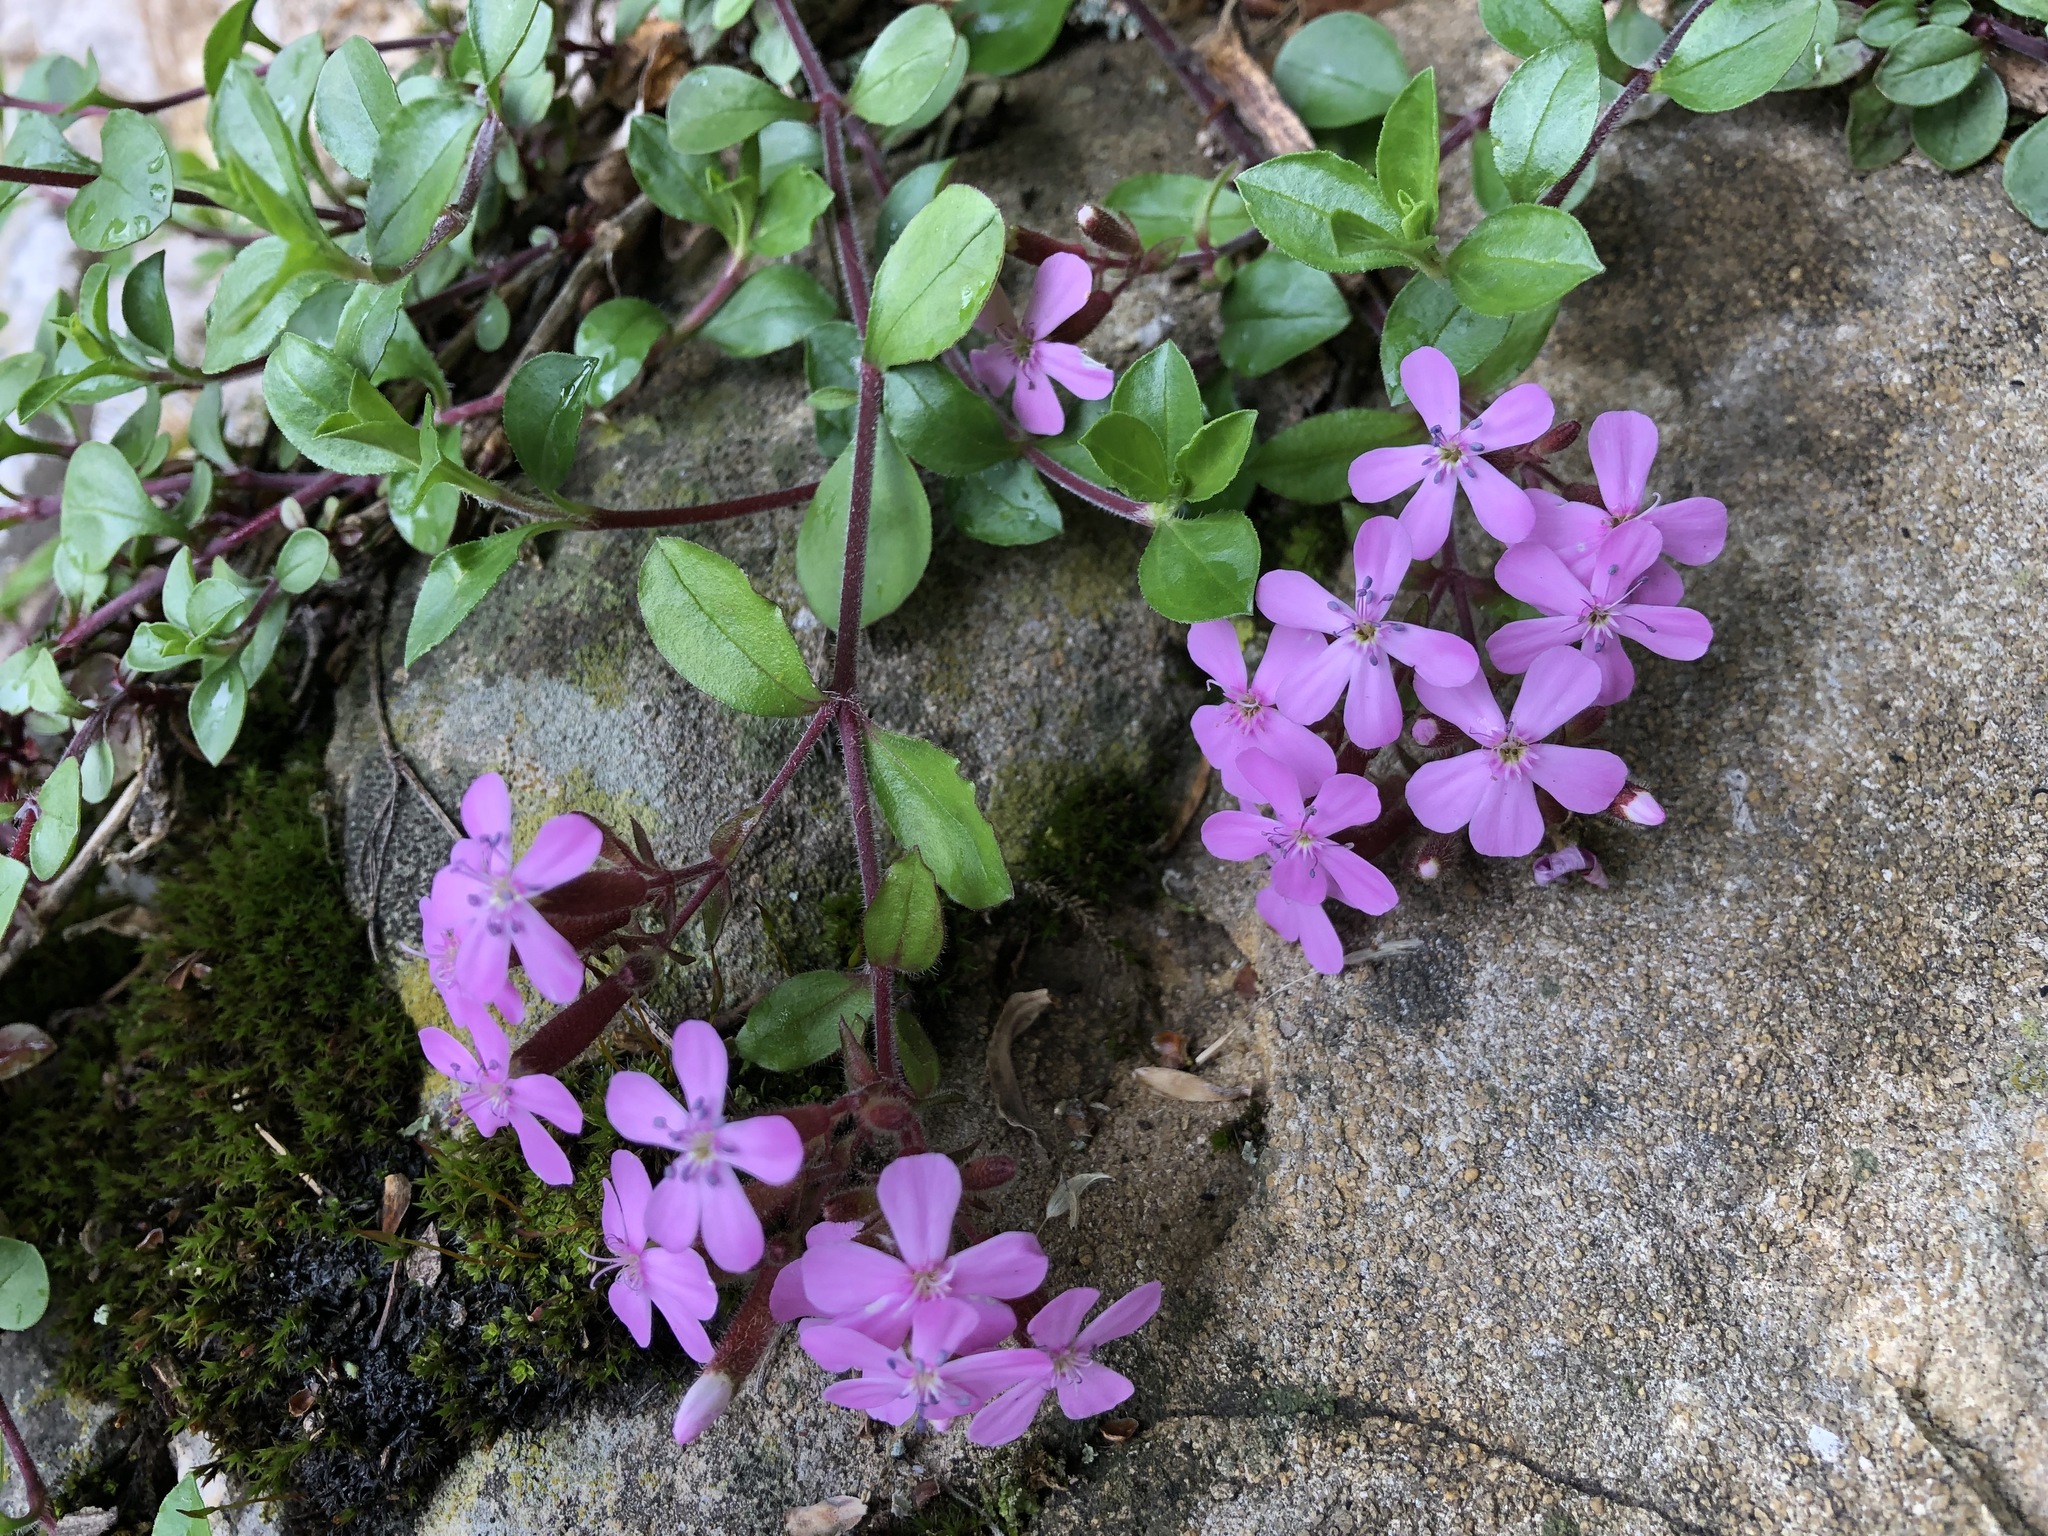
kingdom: Plantae
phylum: Tracheophyta
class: Magnoliopsida
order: Caryophyllales
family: Caryophyllaceae
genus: Saponaria
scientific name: Saponaria ocymoides
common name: Rock soapwort
